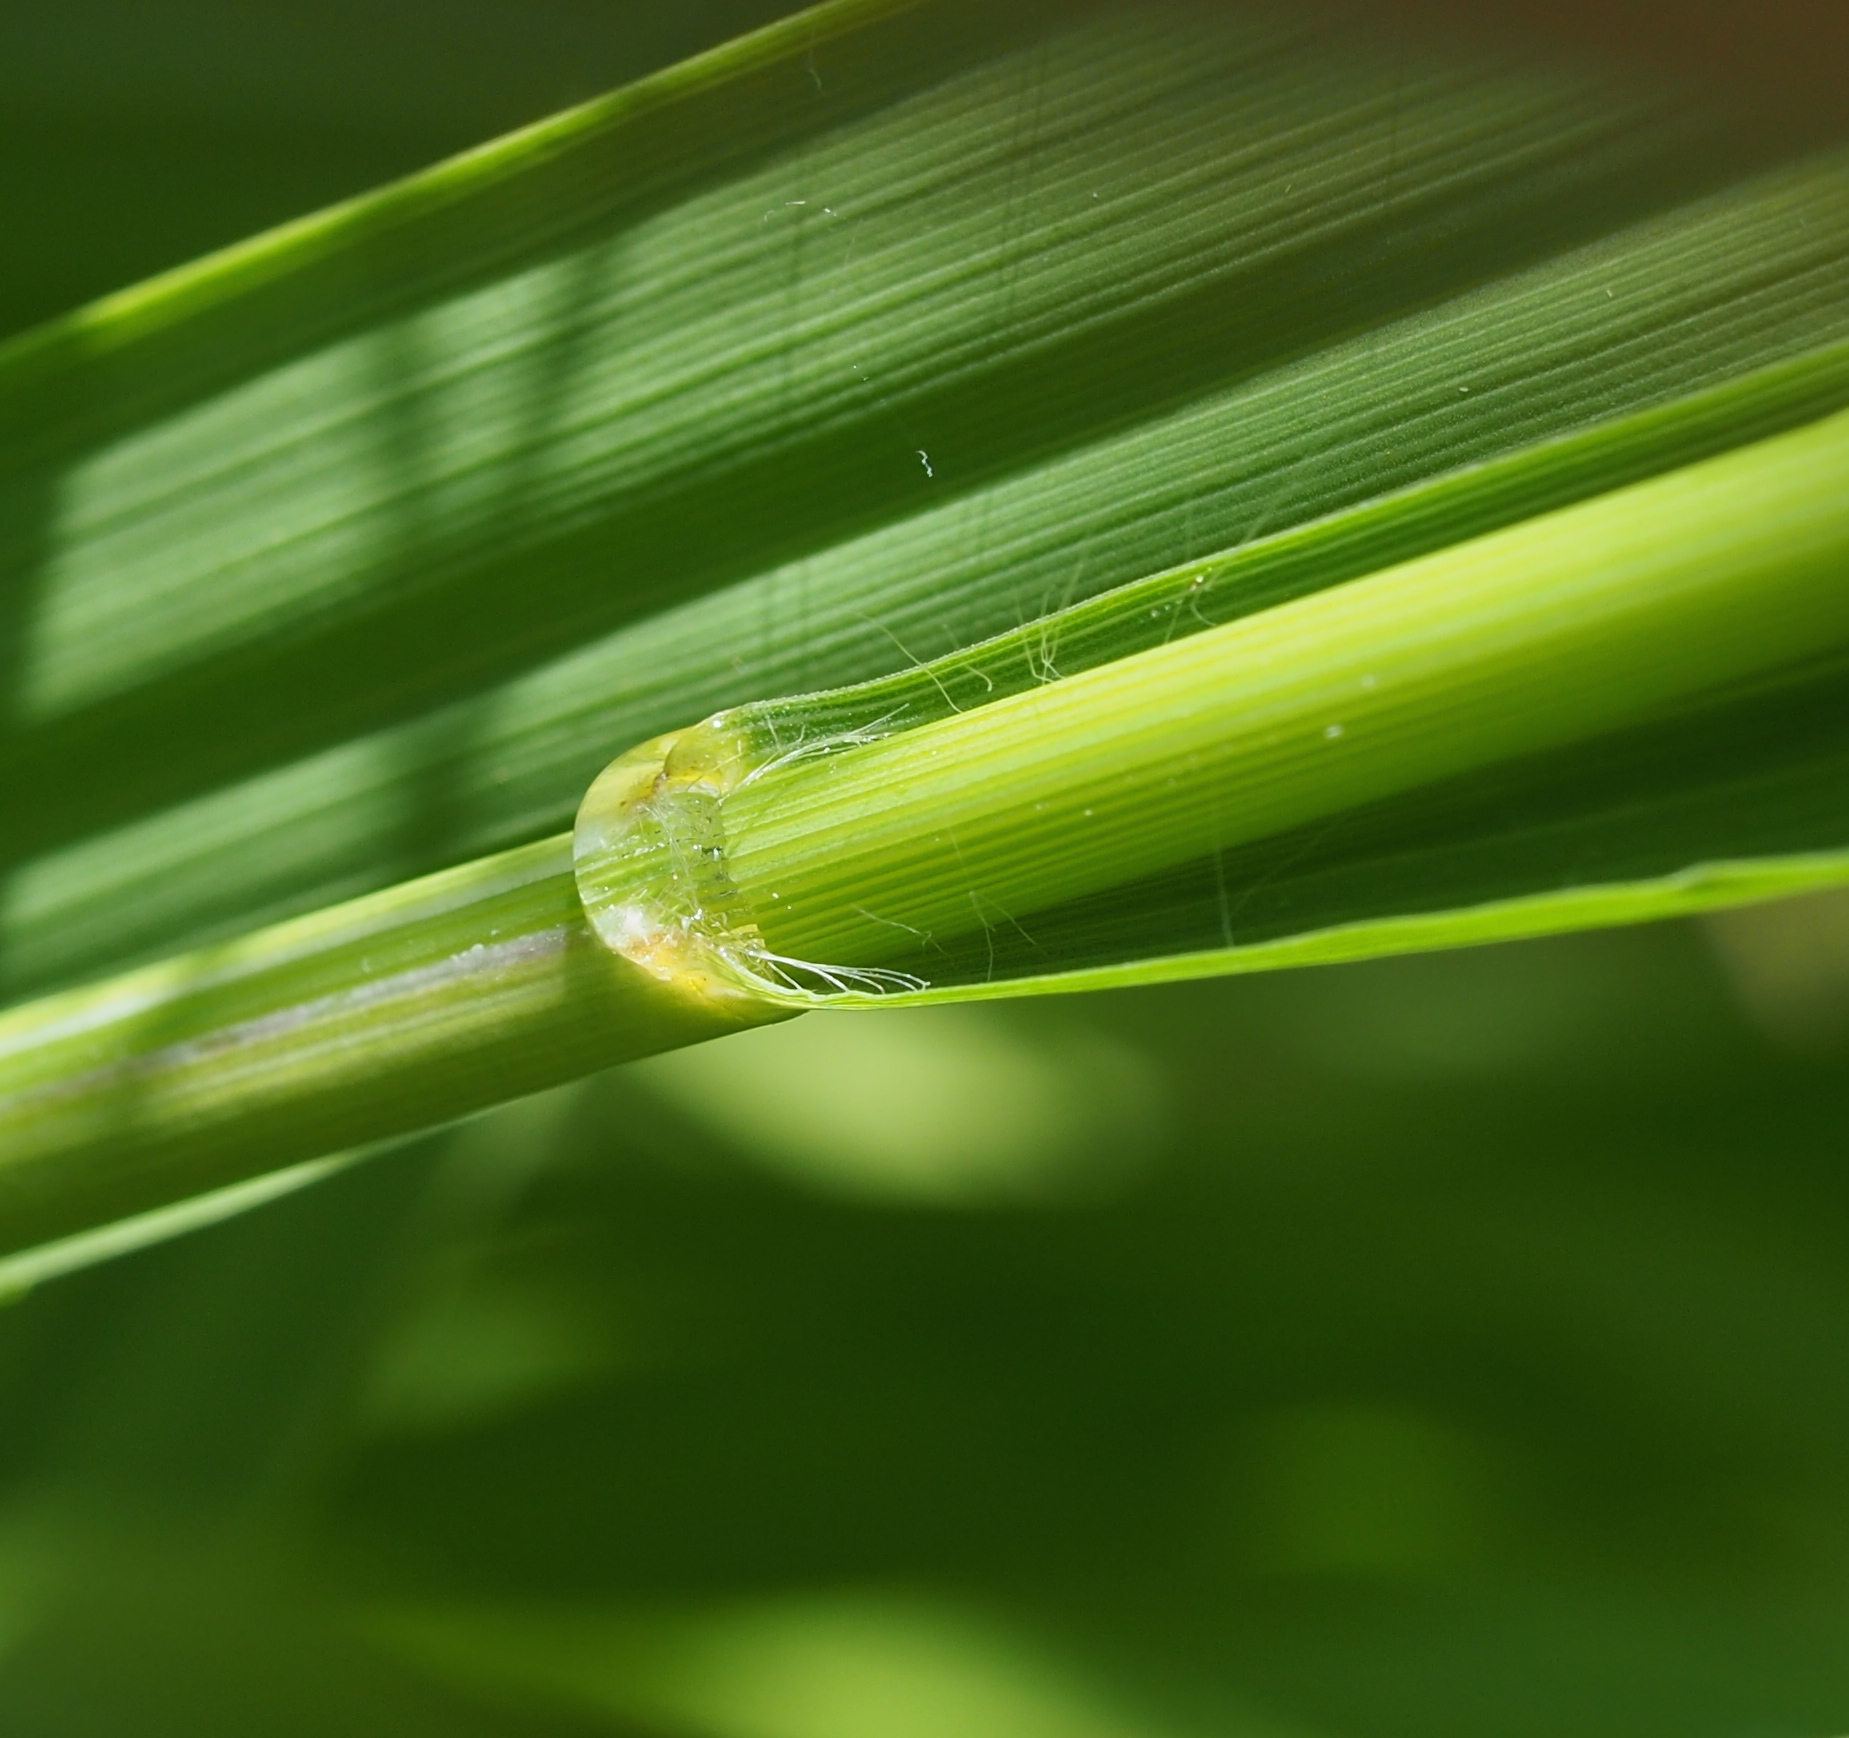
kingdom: Plantae
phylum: Tracheophyta
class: Liliopsida
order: Poales
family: Poaceae
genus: Molinia
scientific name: Molinia arundinacea
